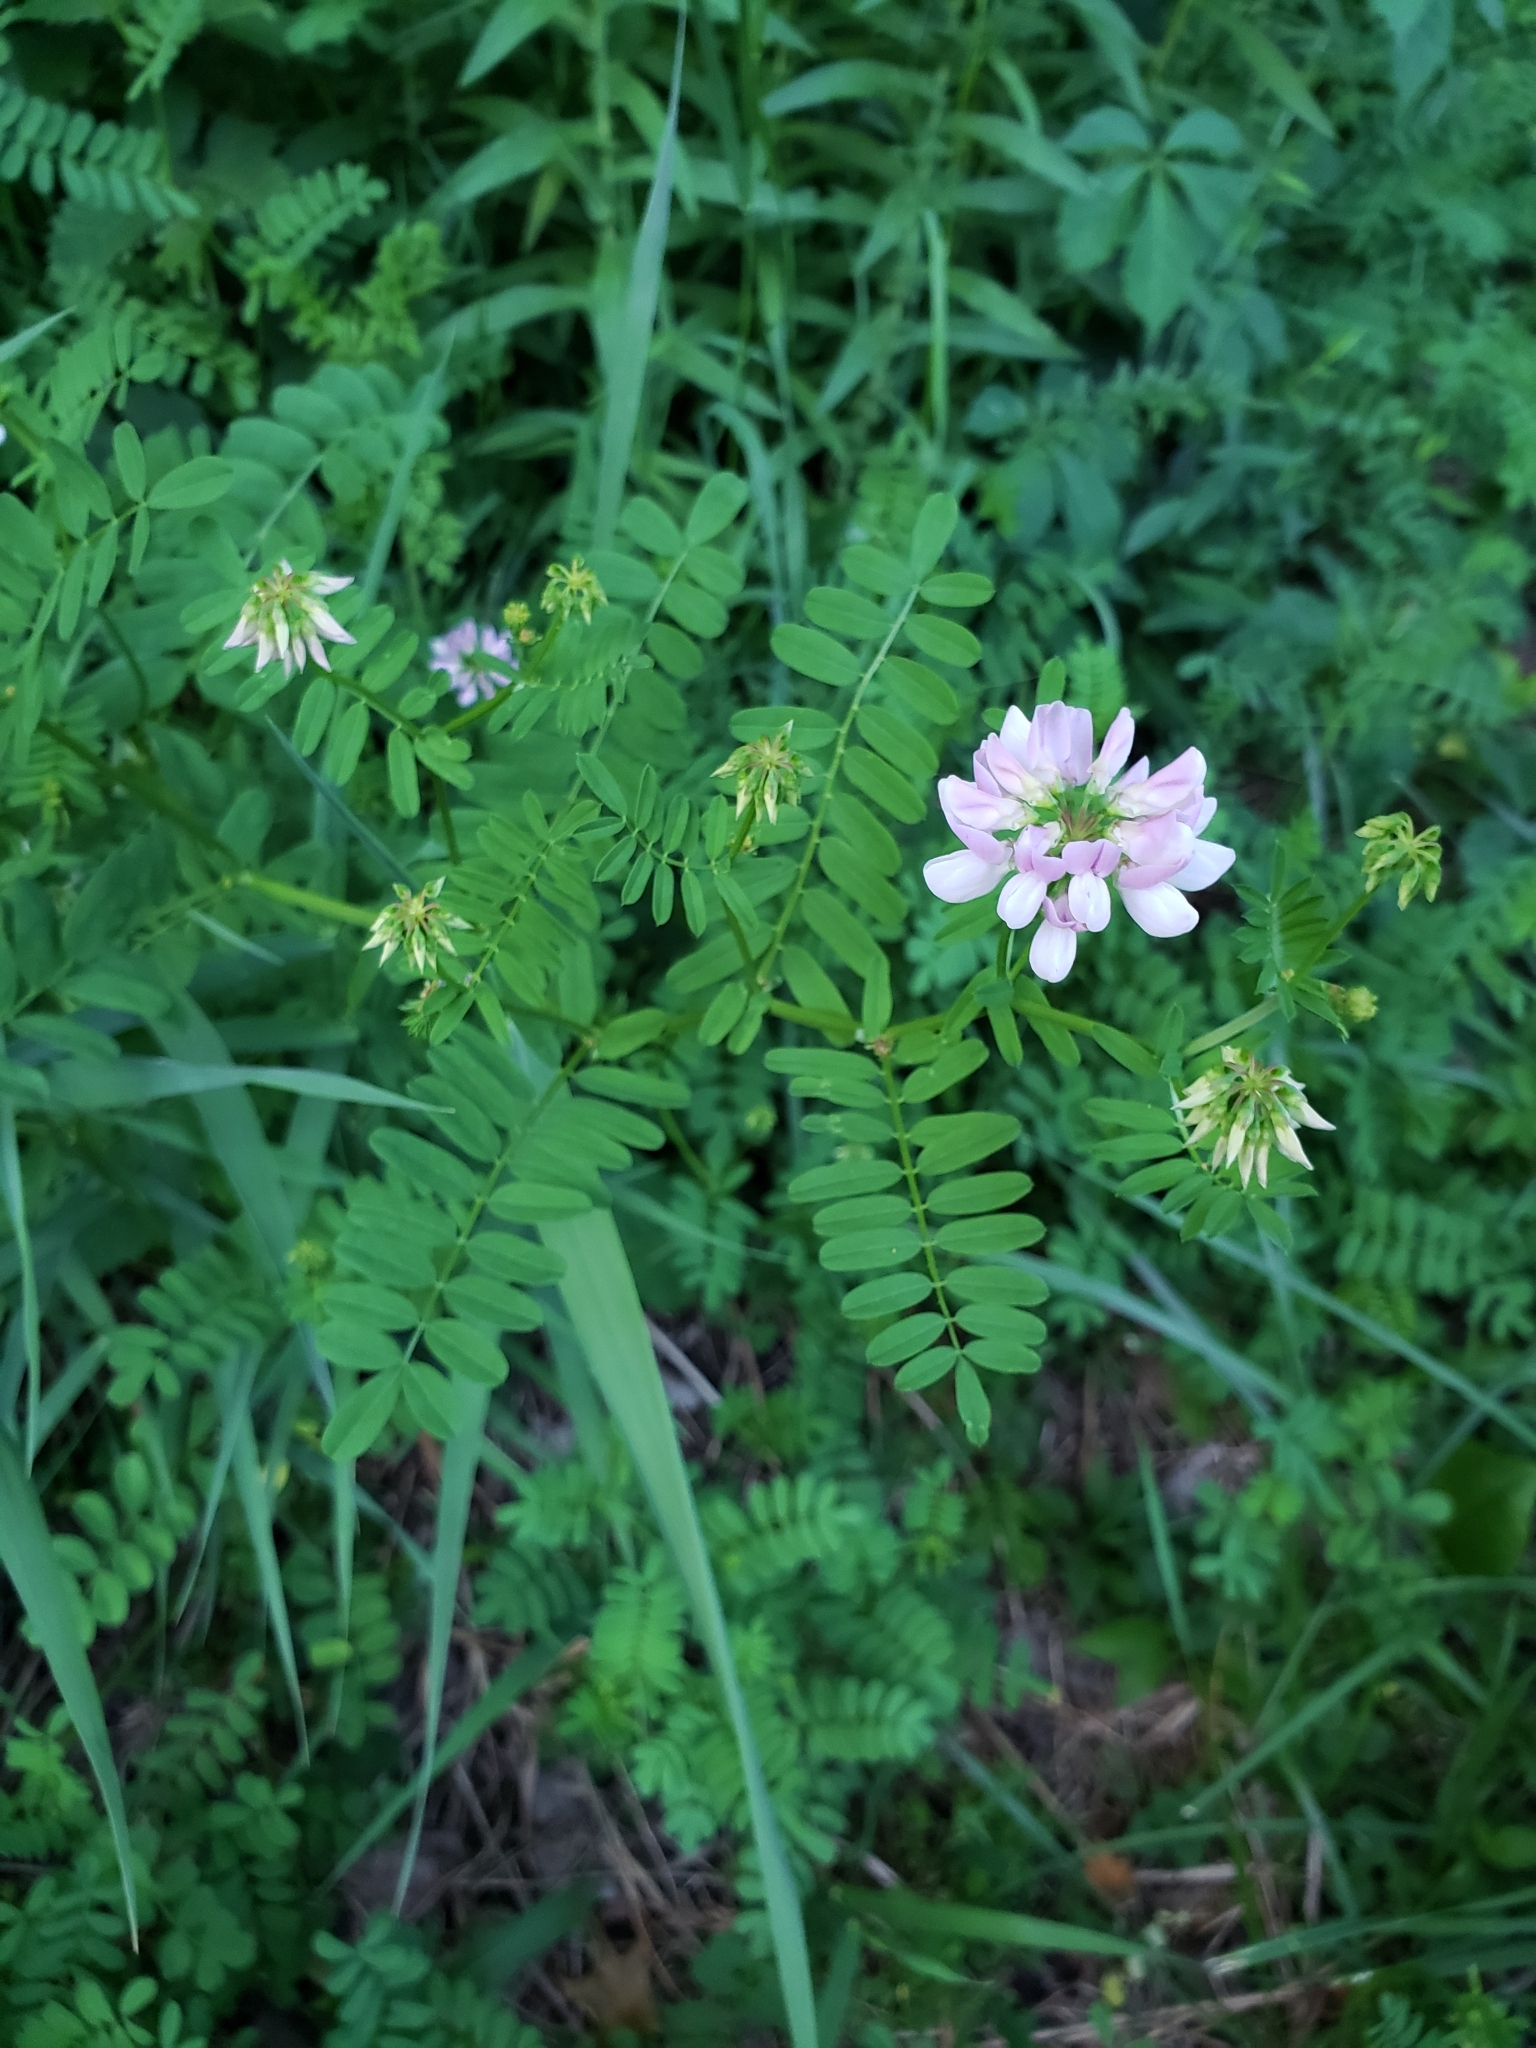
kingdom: Plantae
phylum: Tracheophyta
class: Magnoliopsida
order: Fabales
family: Fabaceae
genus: Coronilla
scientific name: Coronilla varia
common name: Crownvetch
